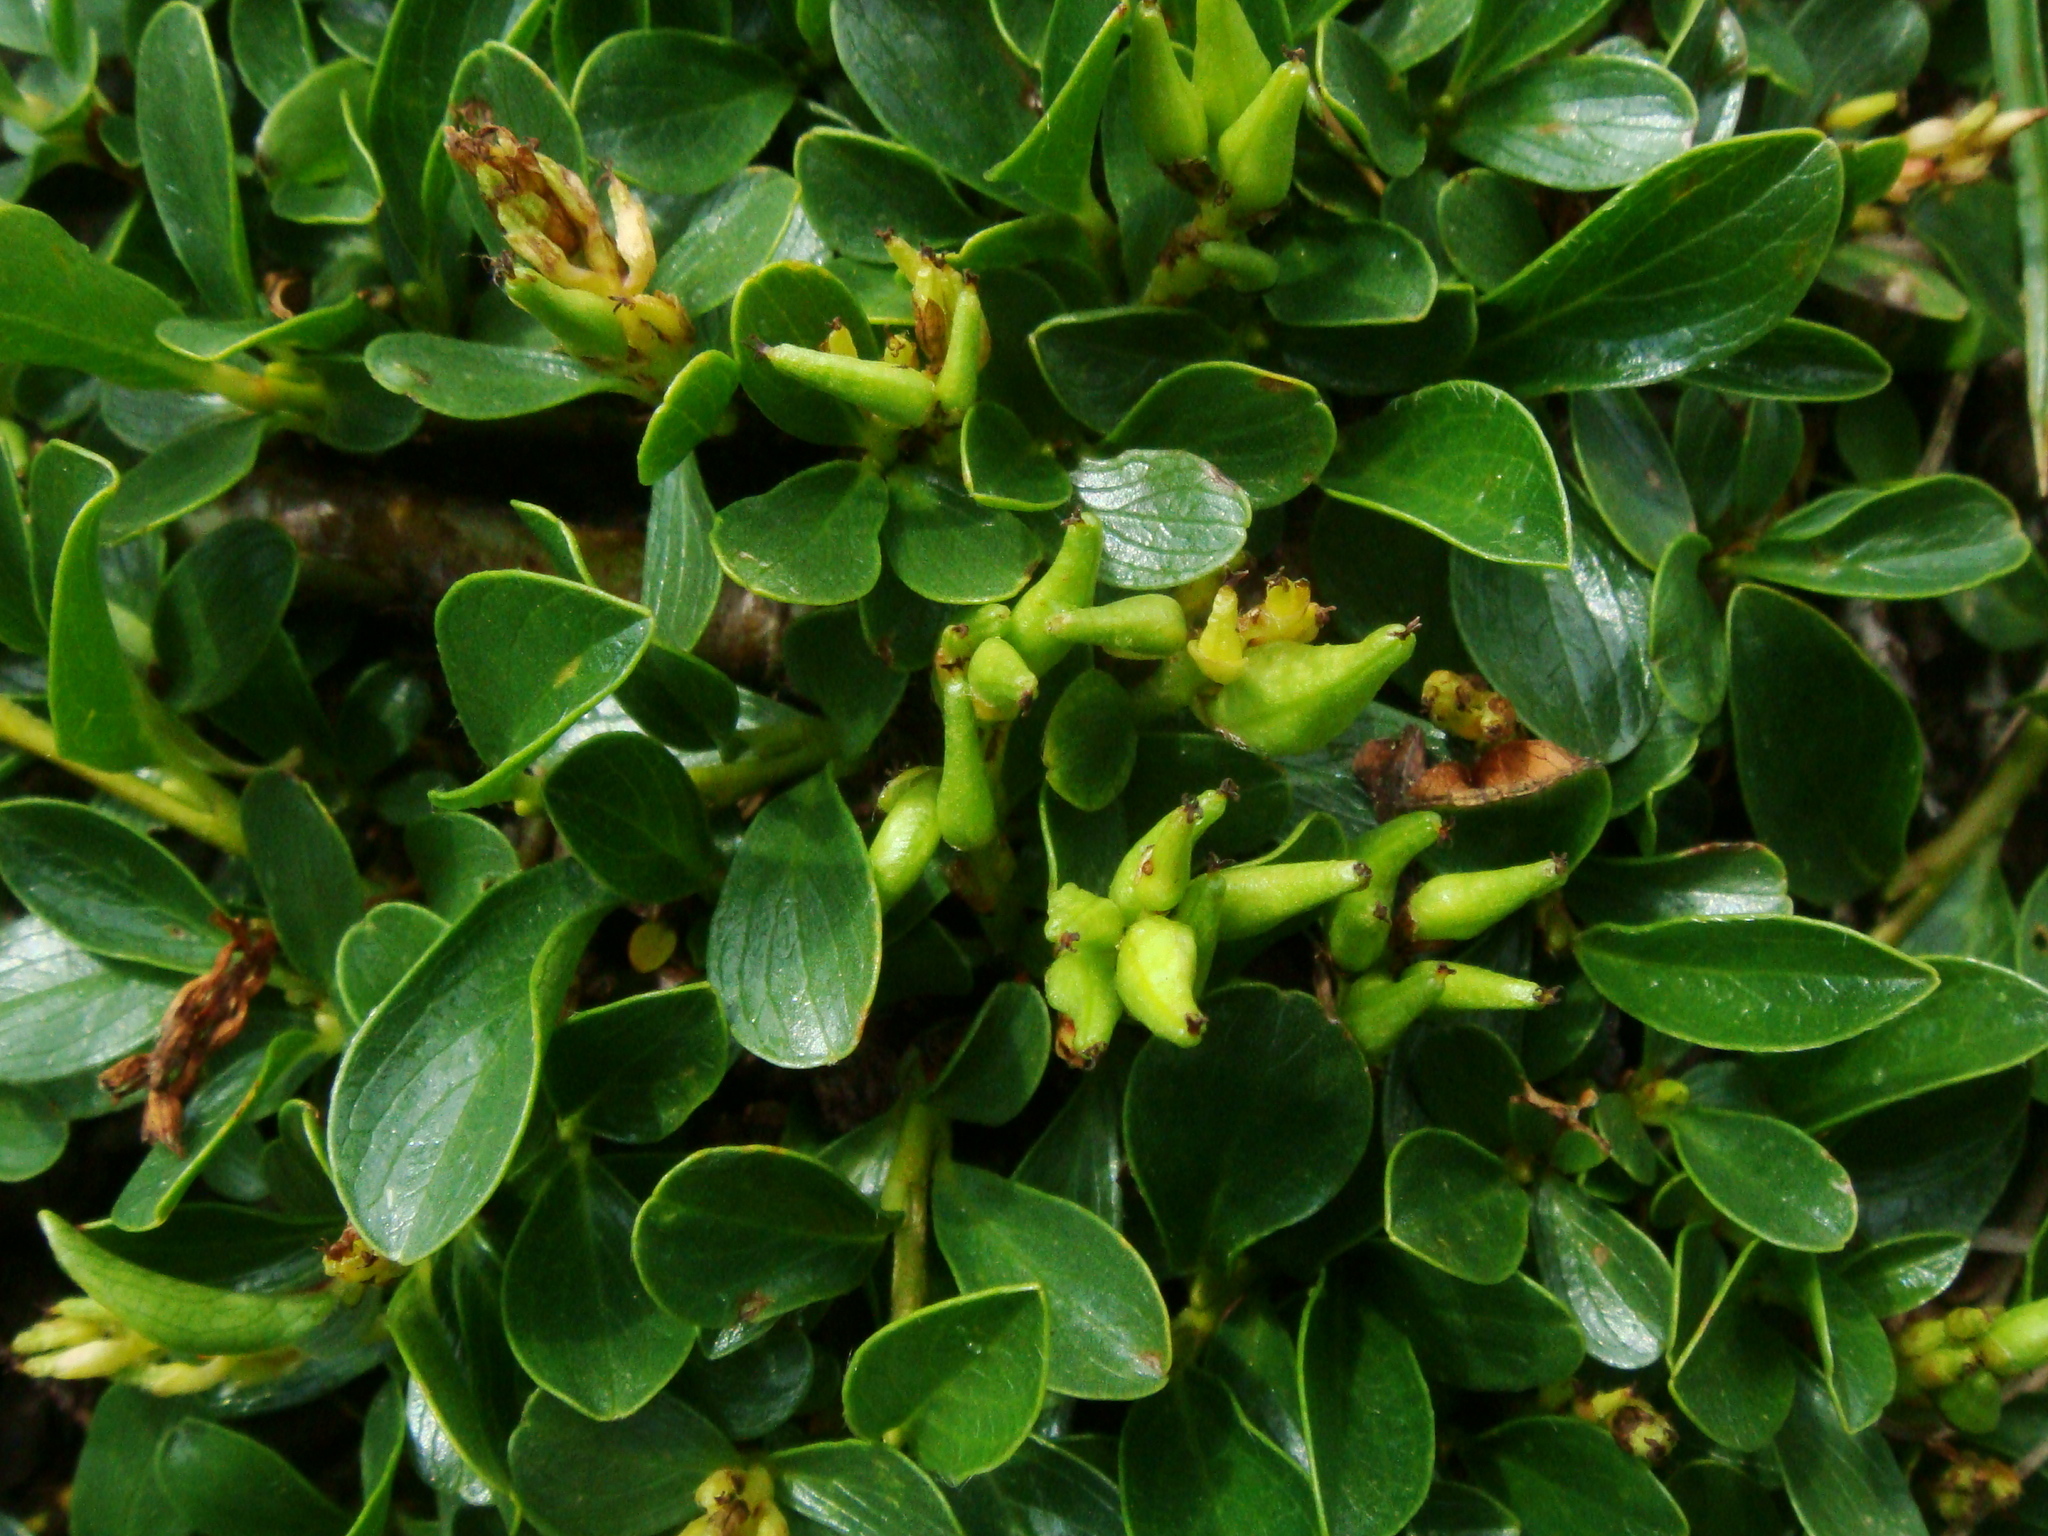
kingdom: Plantae
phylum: Tracheophyta
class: Magnoliopsida
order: Malpighiales
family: Salicaceae
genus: Salix
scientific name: Salix retusa
